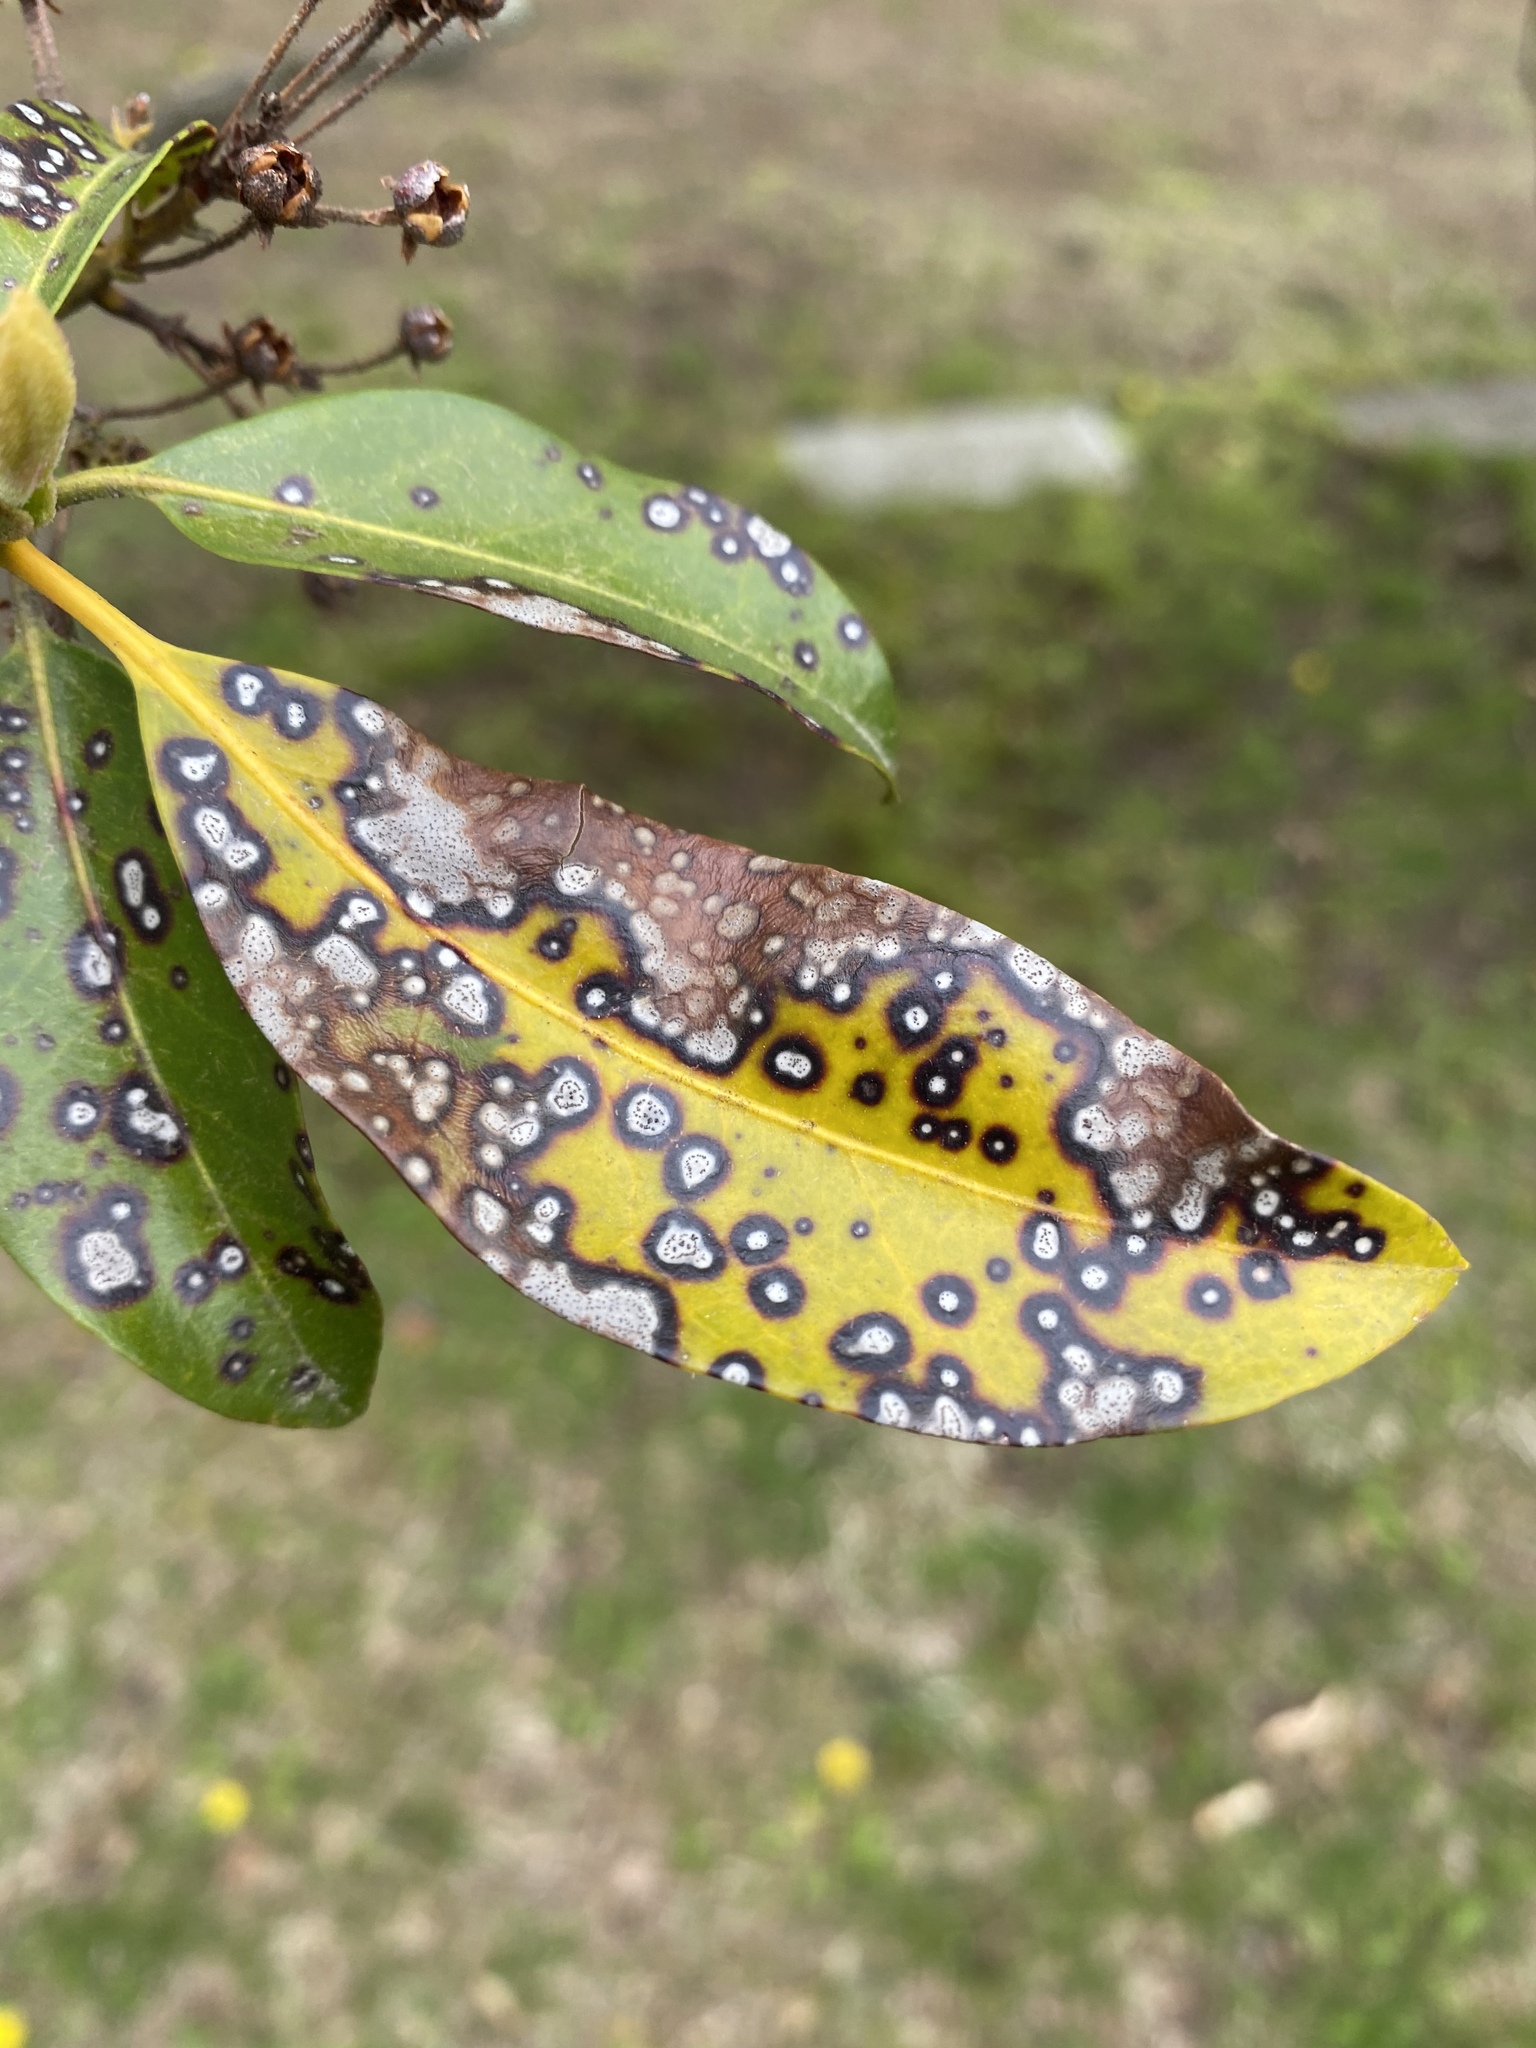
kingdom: Fungi
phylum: Ascomycota
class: Dothideomycetes
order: Mycosphaerellales
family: Mycosphaerellaceae
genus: Mycosphaerella
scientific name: Mycosphaerella colorata
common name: Mountain laurel leaf spot
